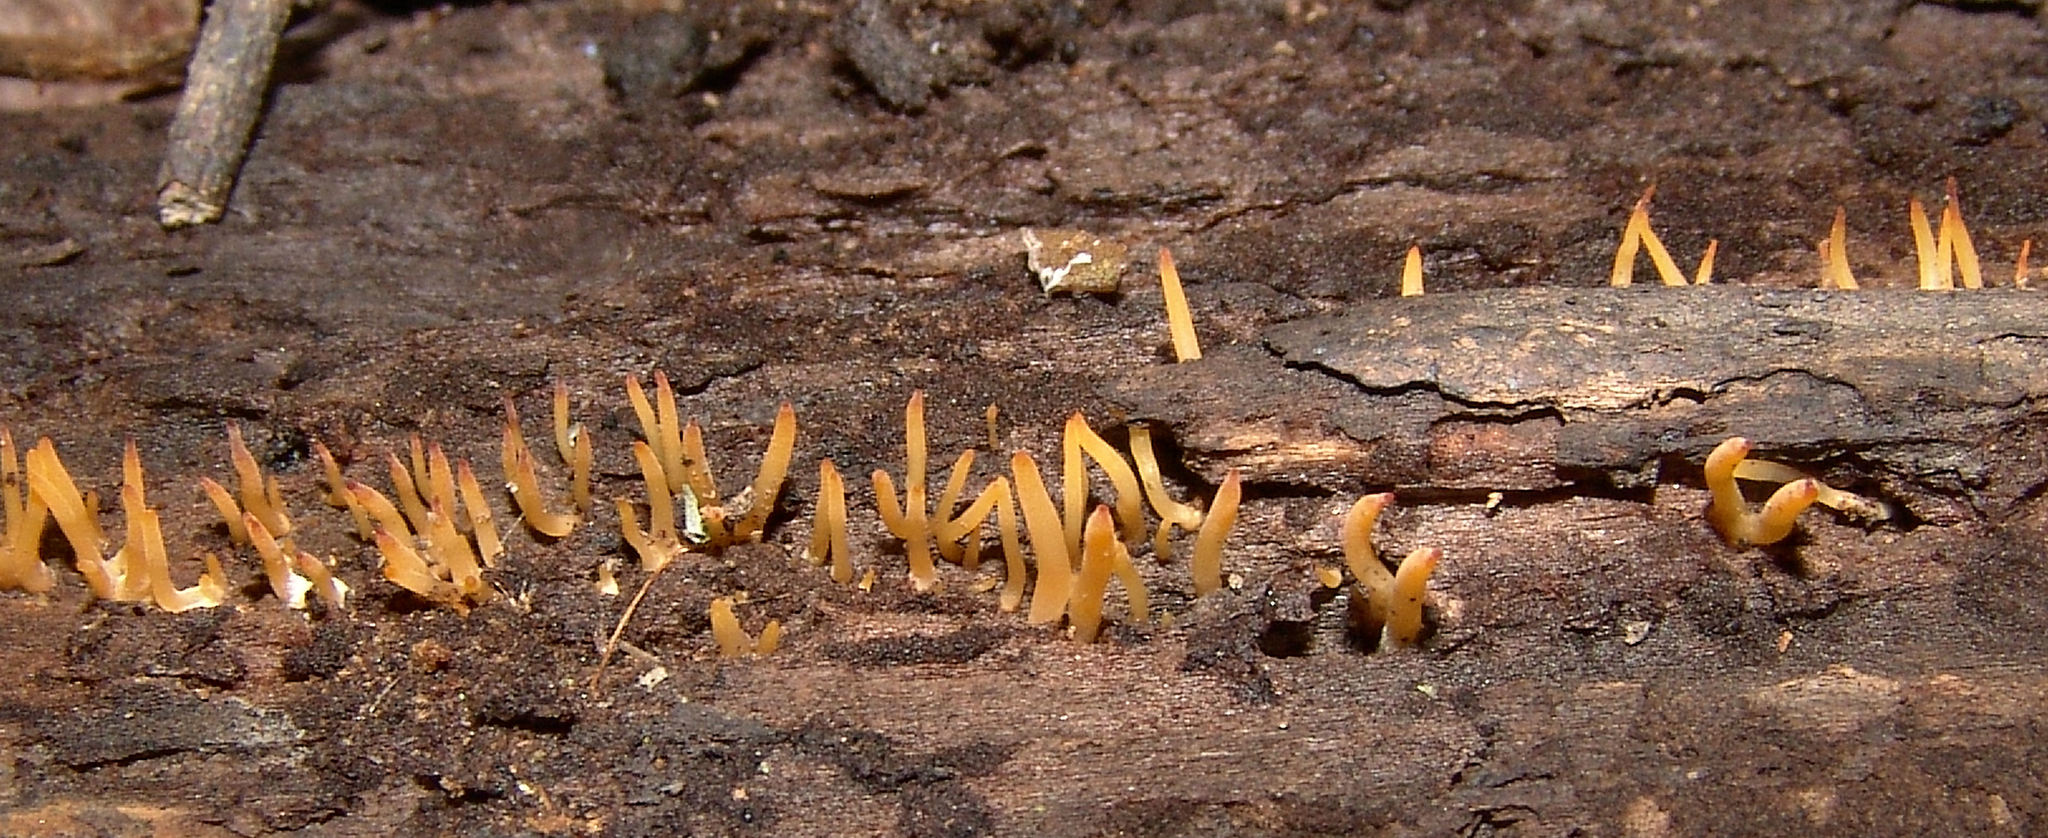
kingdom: Fungi
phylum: Basidiomycota
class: Dacrymycetes
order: Dacrymycetales
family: Dacrymycetaceae
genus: Calocera
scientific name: Calocera cornea
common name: Small stagshorn
